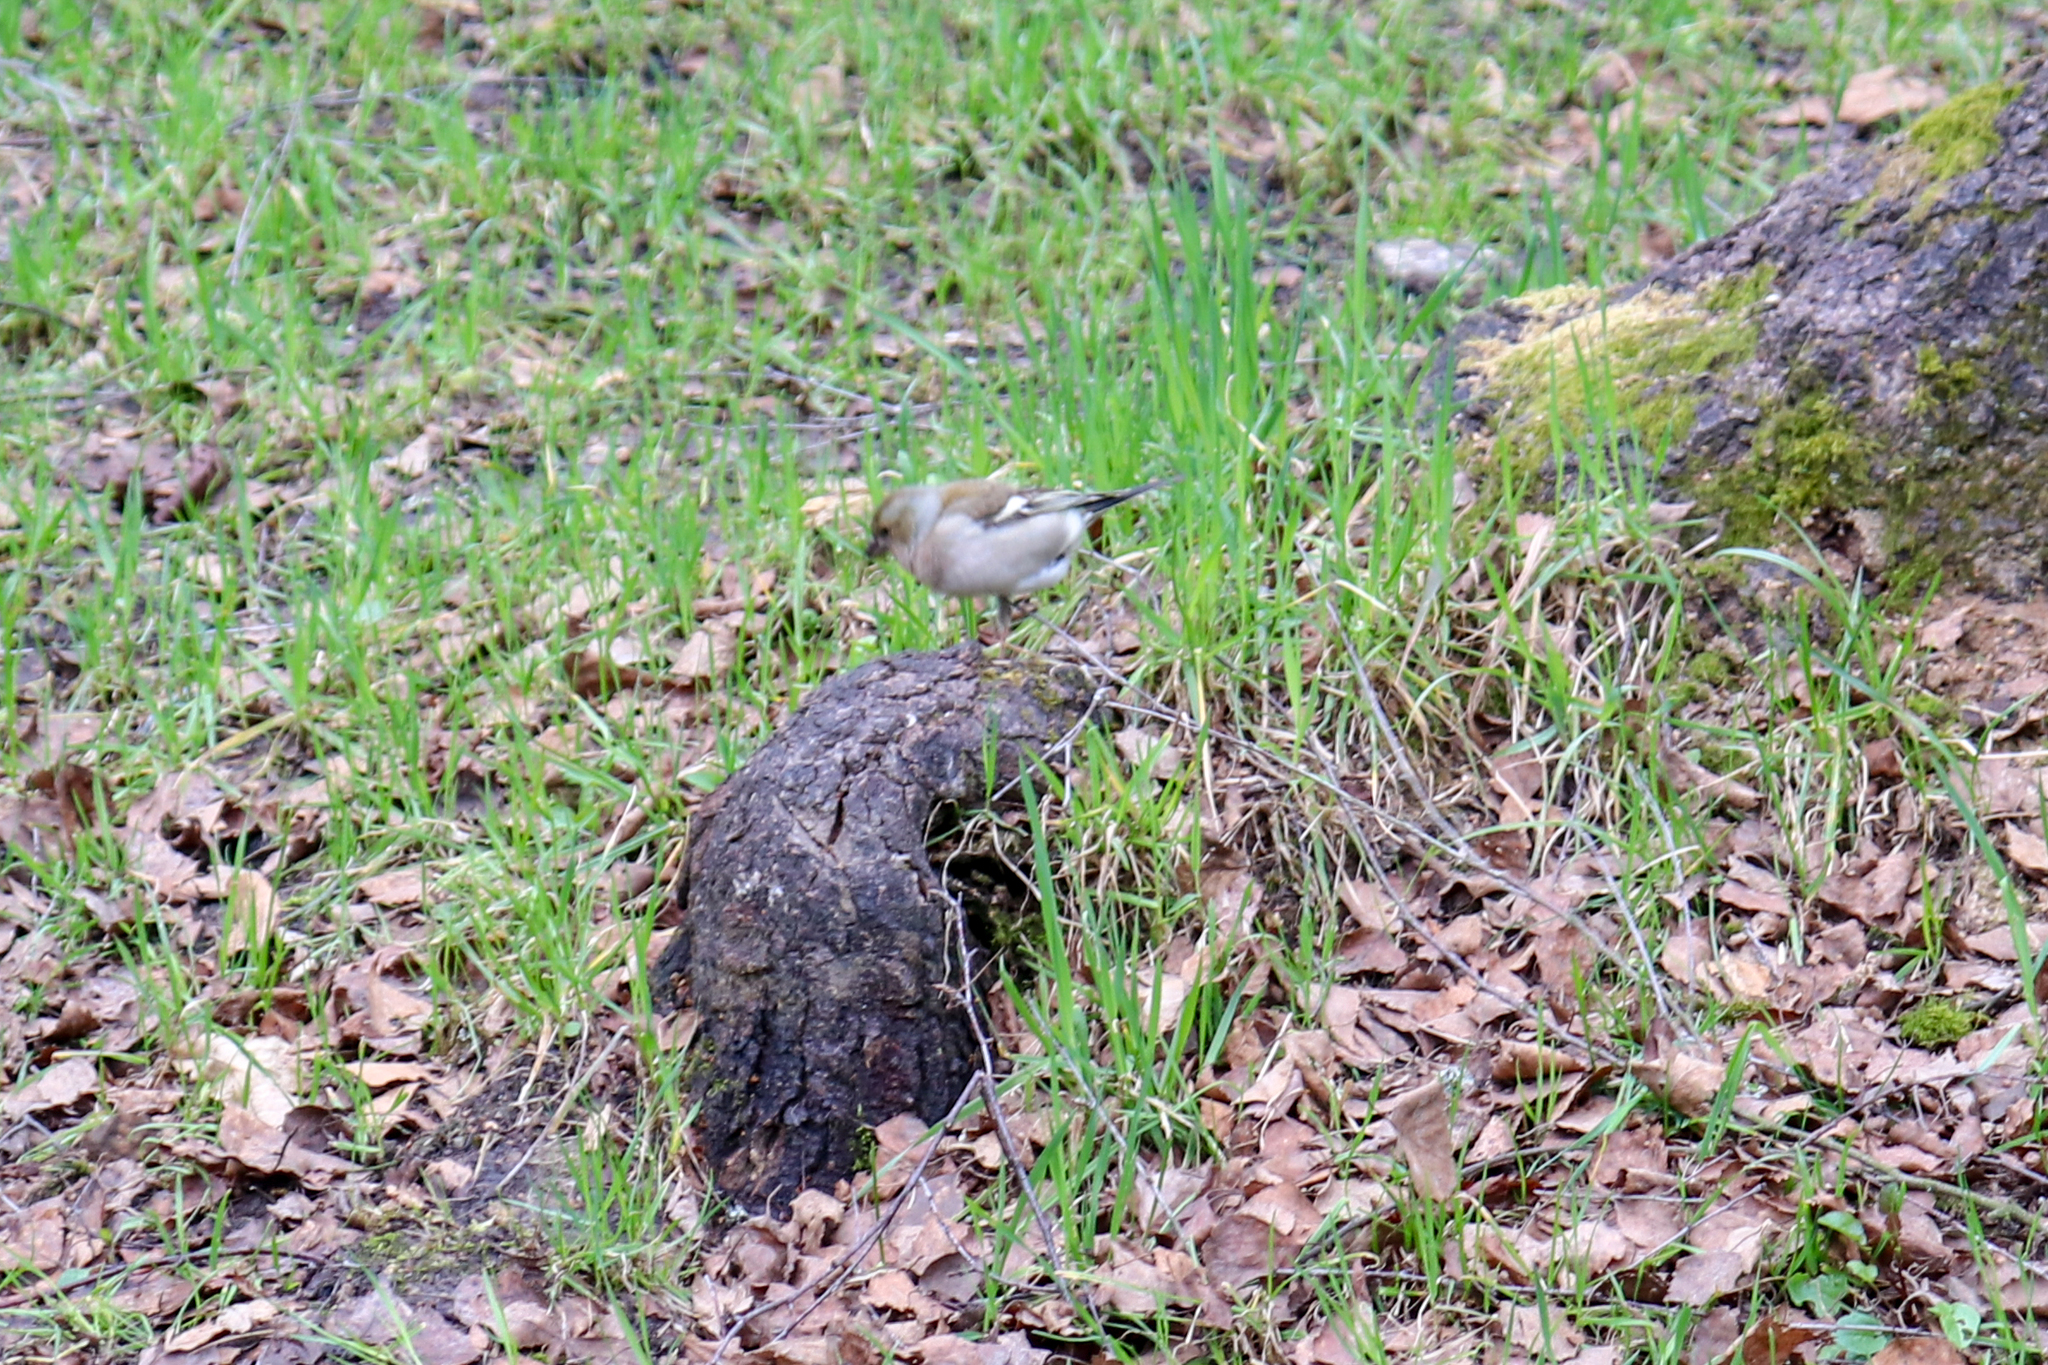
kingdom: Animalia
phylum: Chordata
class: Aves
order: Passeriformes
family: Fringillidae
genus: Fringilla
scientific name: Fringilla coelebs
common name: Common chaffinch
